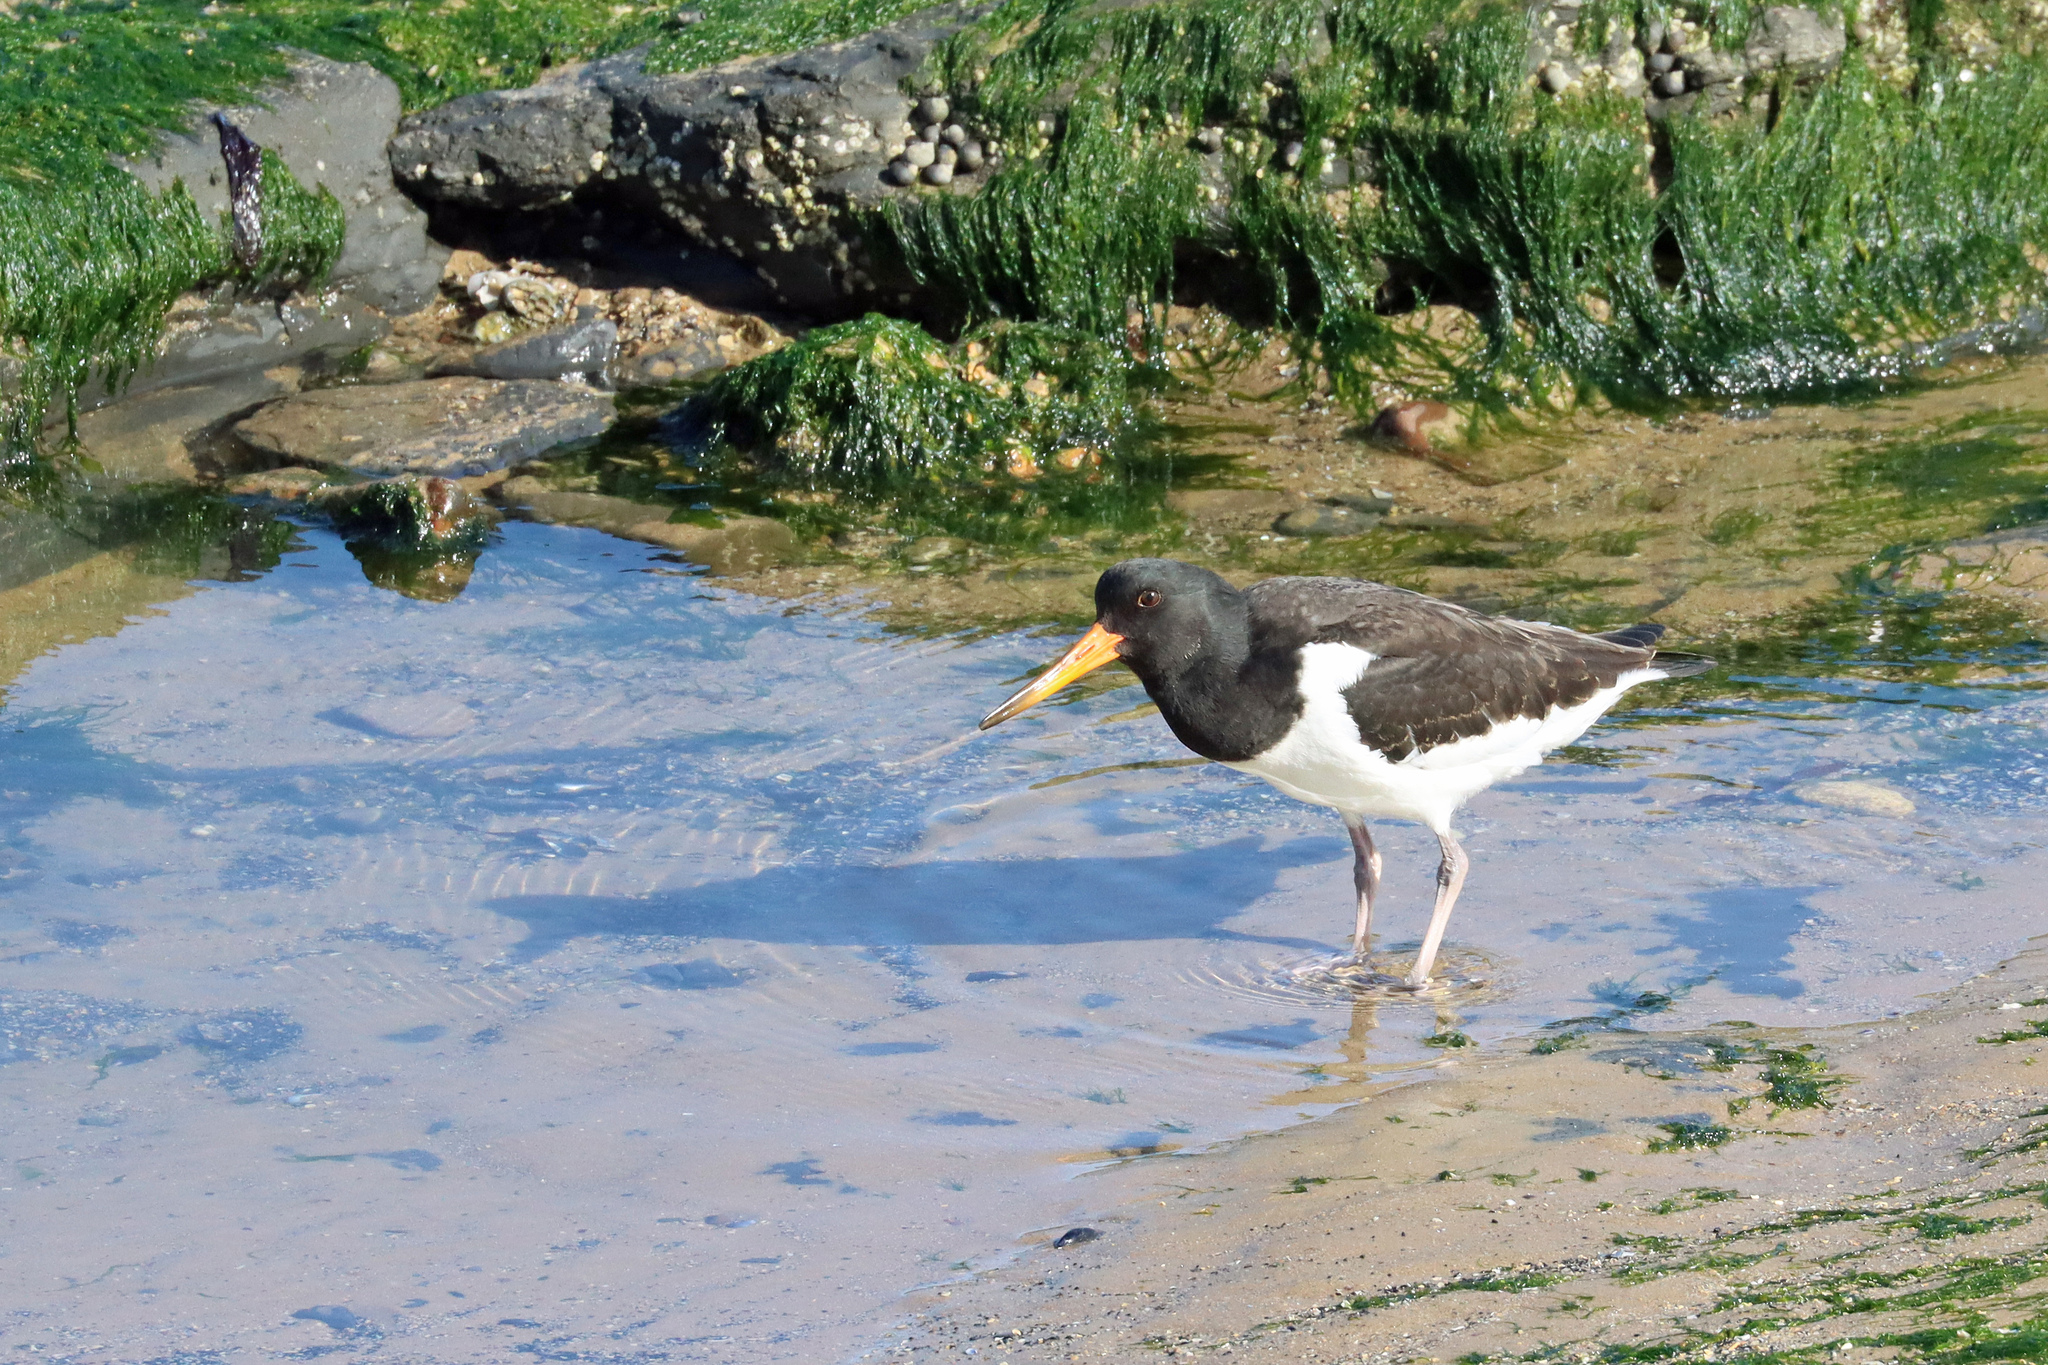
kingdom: Animalia
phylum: Chordata
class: Aves
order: Charadriiformes
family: Haematopodidae
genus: Haematopus
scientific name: Haematopus ostralegus
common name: Eurasian oystercatcher
